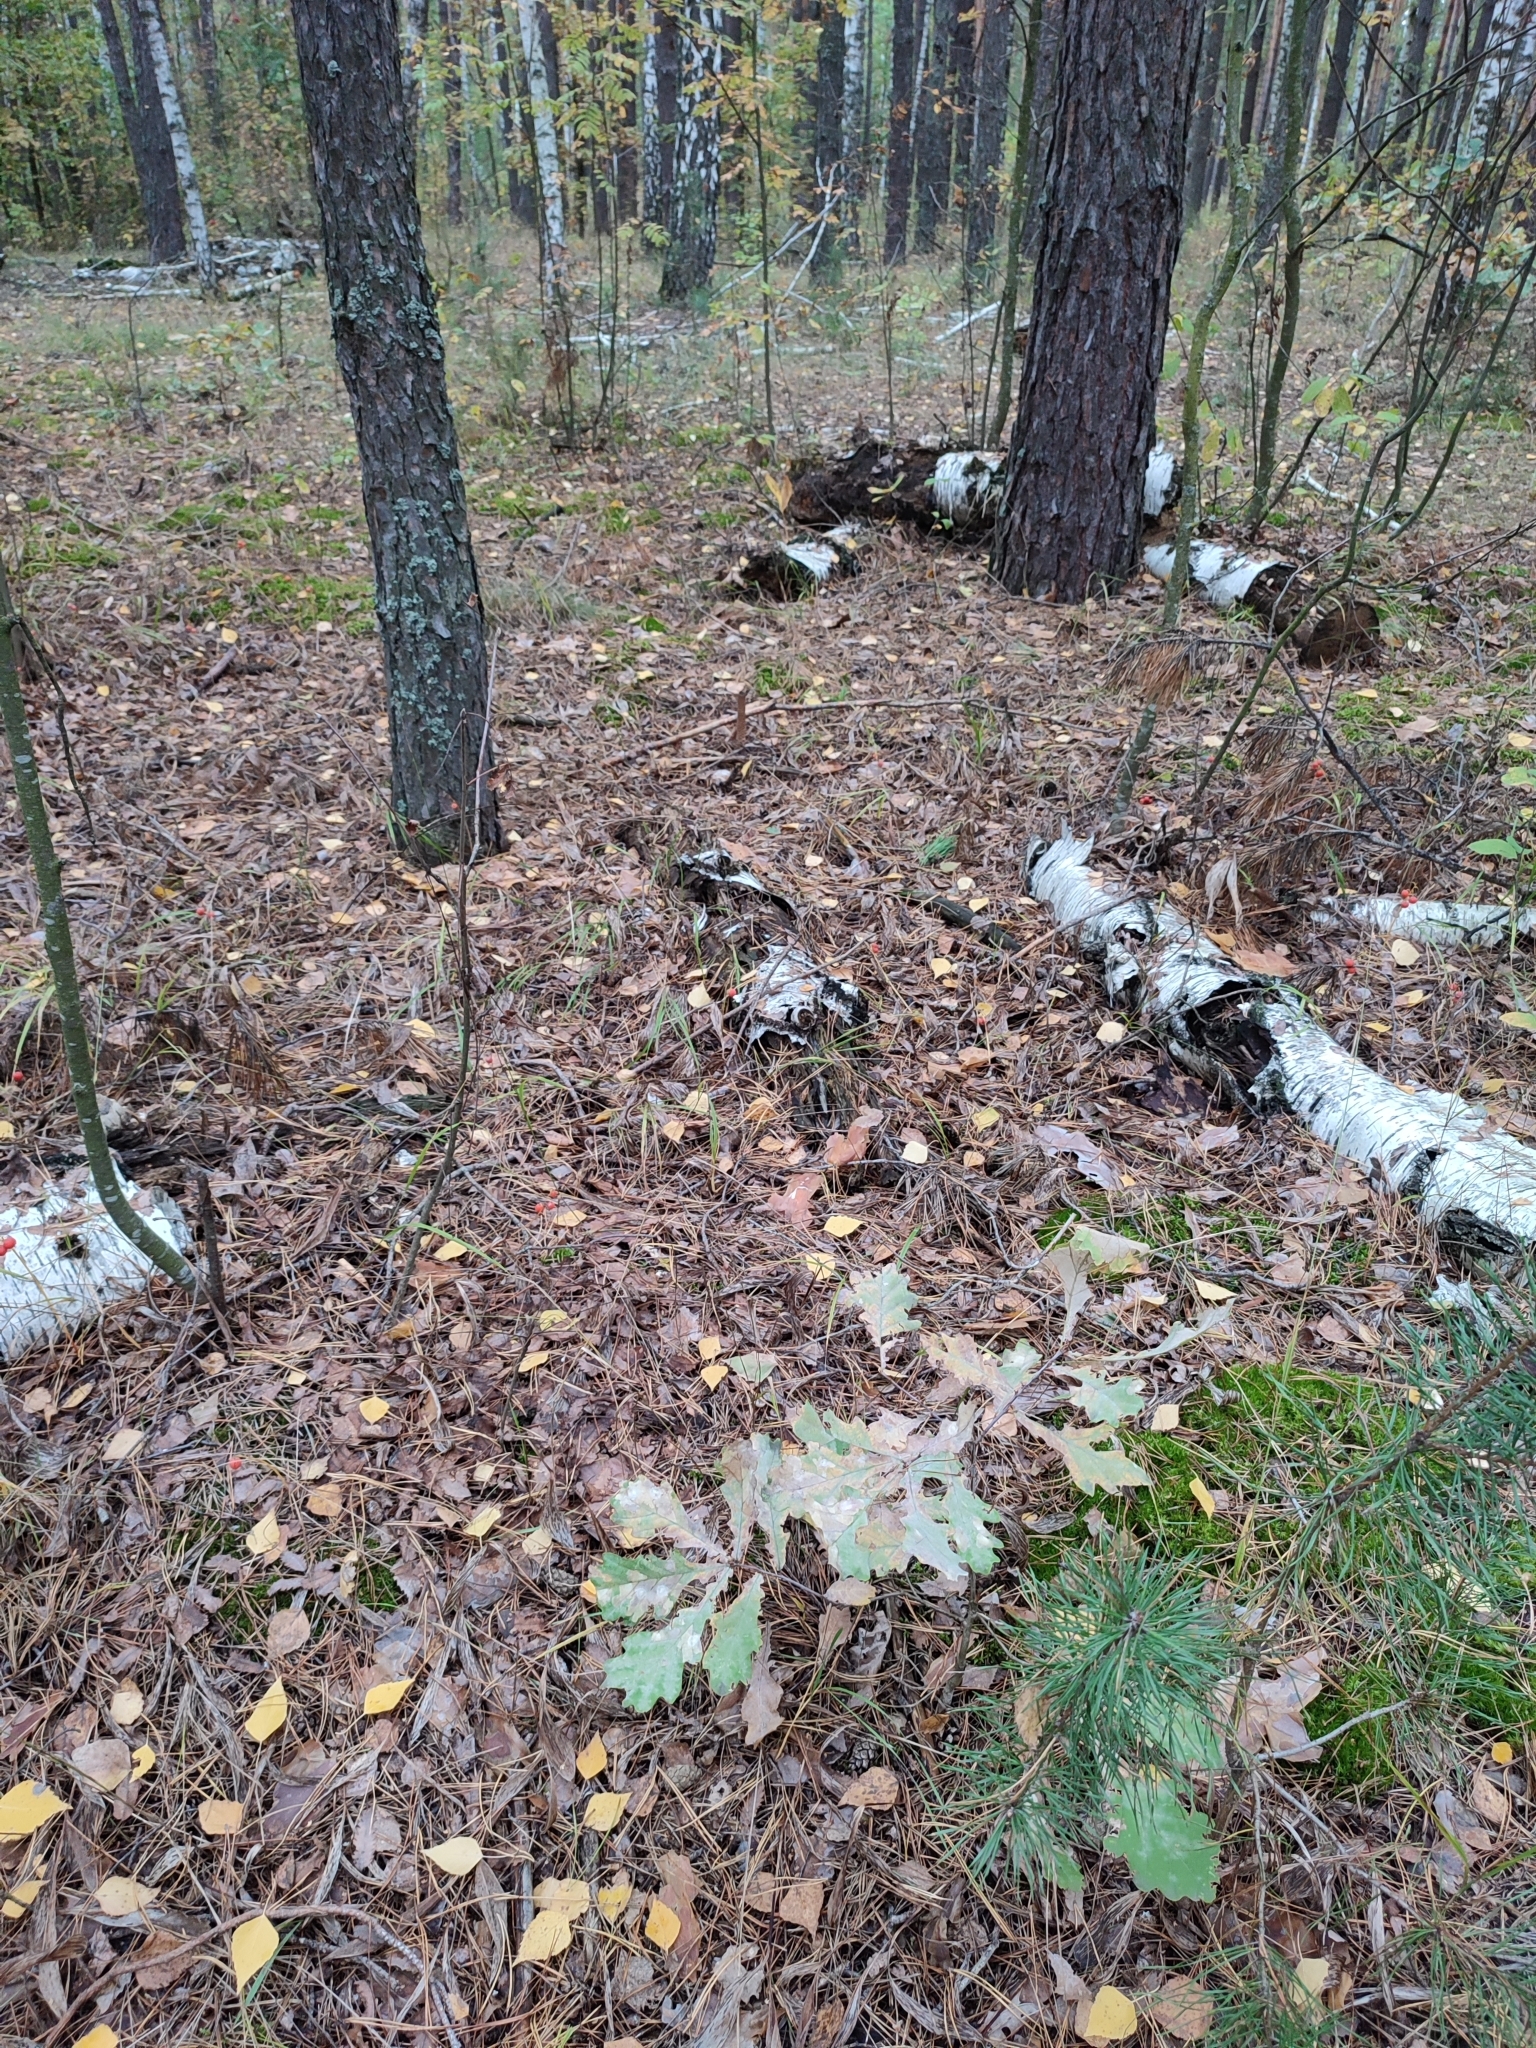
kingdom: Plantae
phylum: Tracheophyta
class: Magnoliopsida
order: Fagales
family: Fagaceae
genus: Quercus
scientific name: Quercus robur
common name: Pedunculate oak
